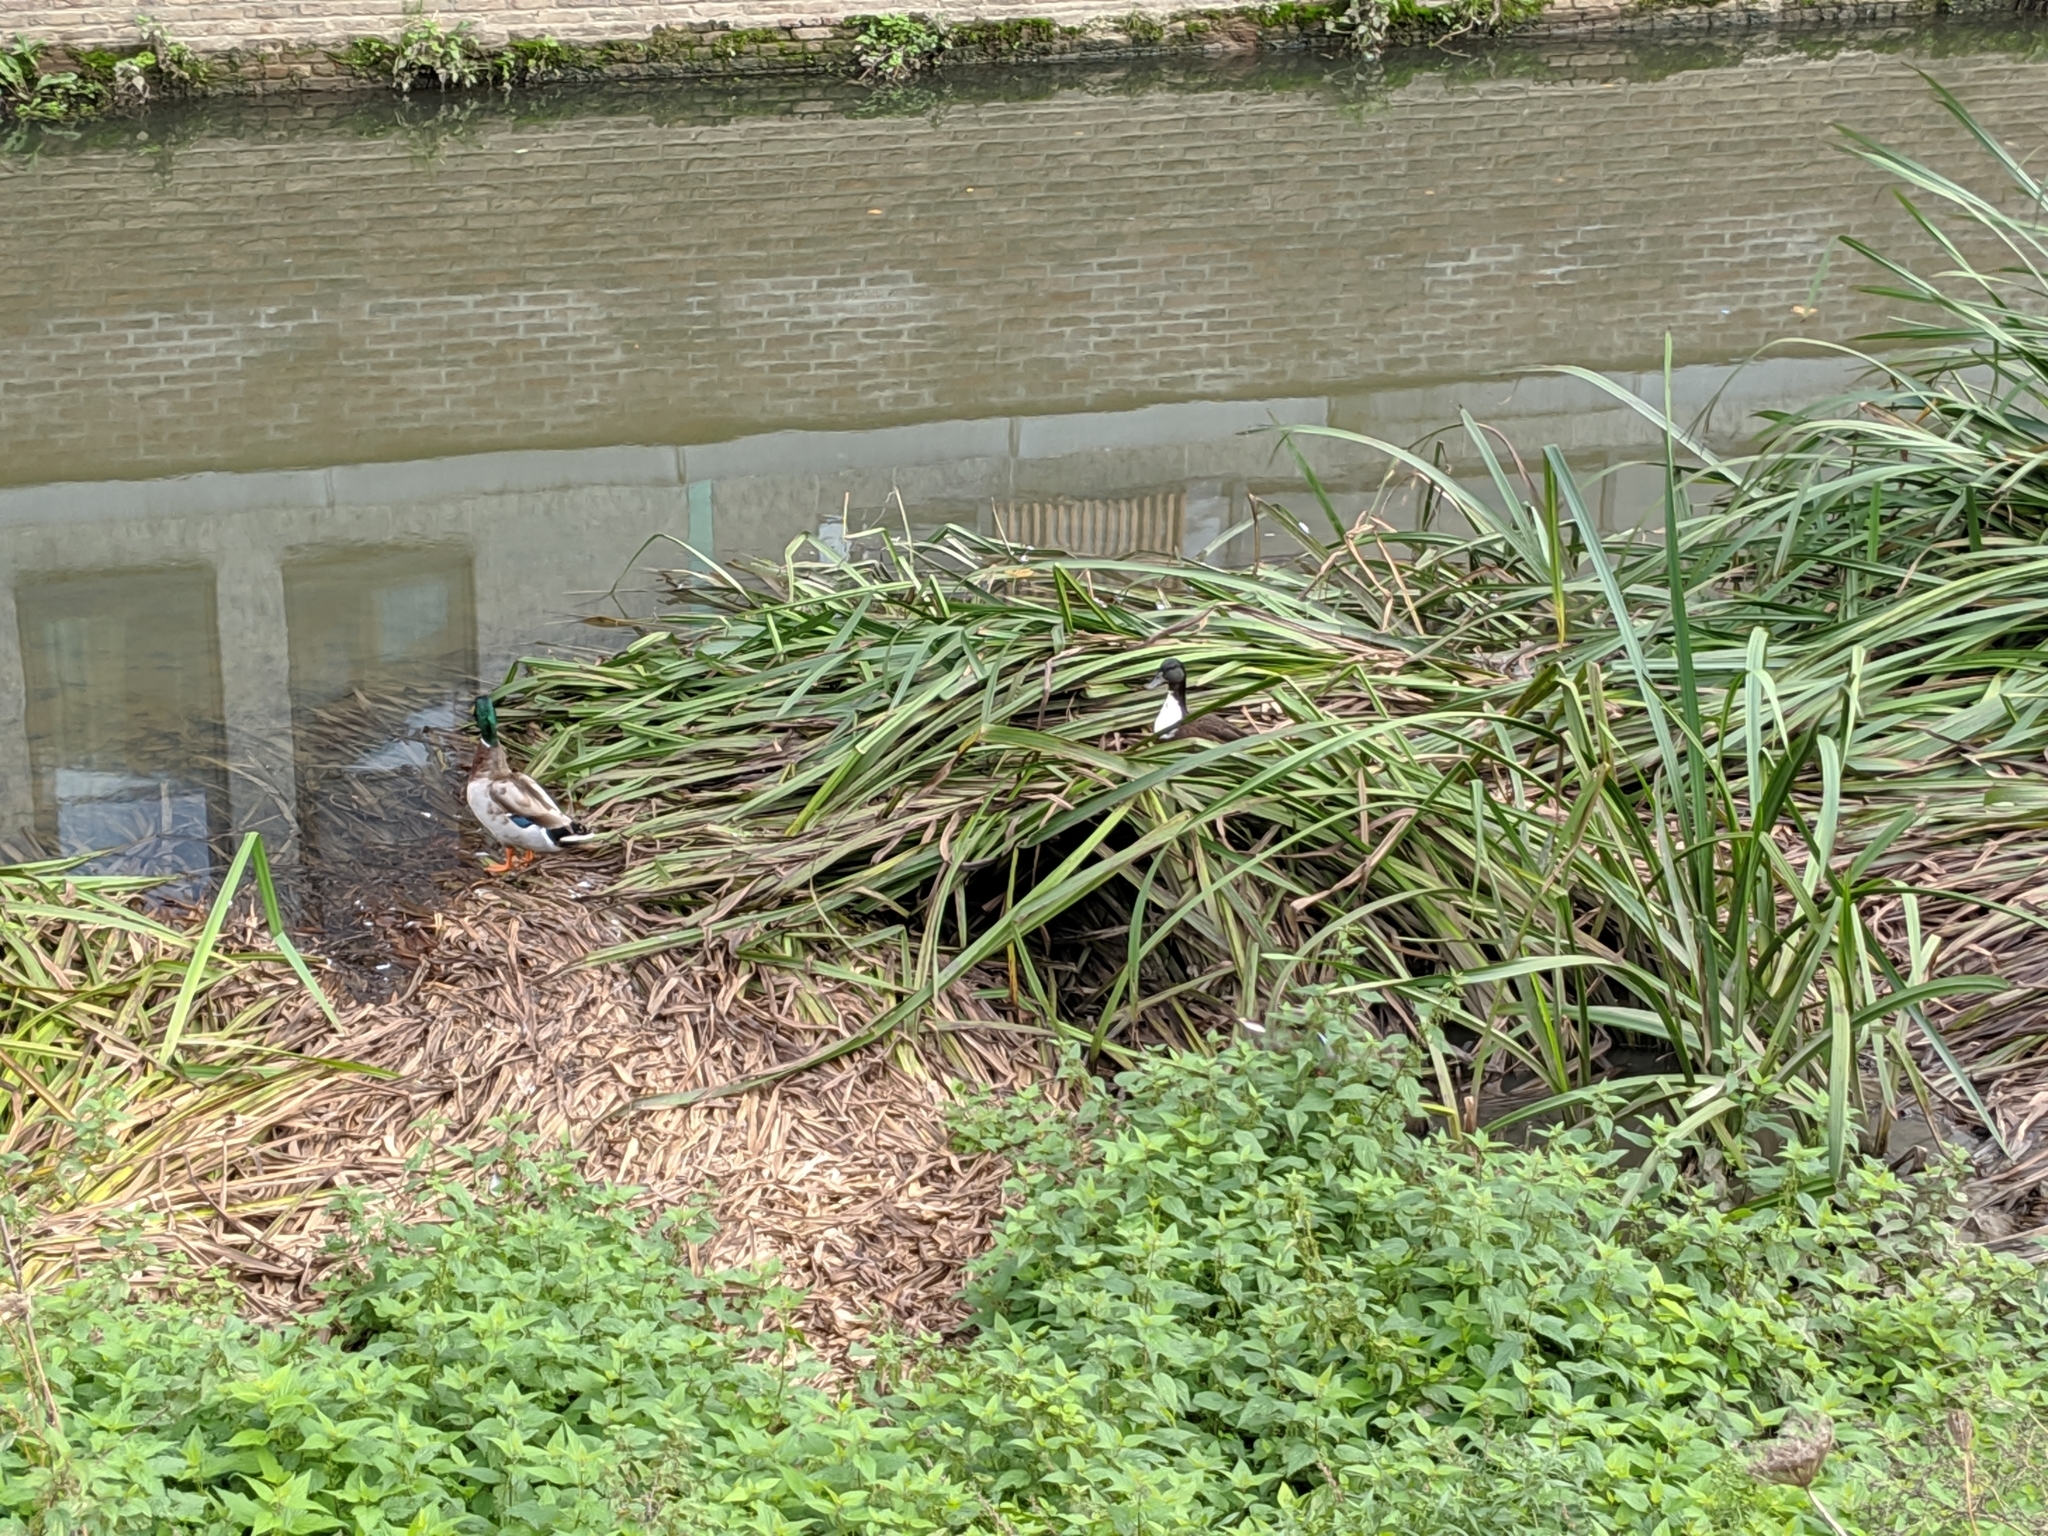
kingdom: Animalia
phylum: Chordata
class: Aves
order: Anseriformes
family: Anatidae
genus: Anas
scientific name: Anas platyrhynchos
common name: Mallard
